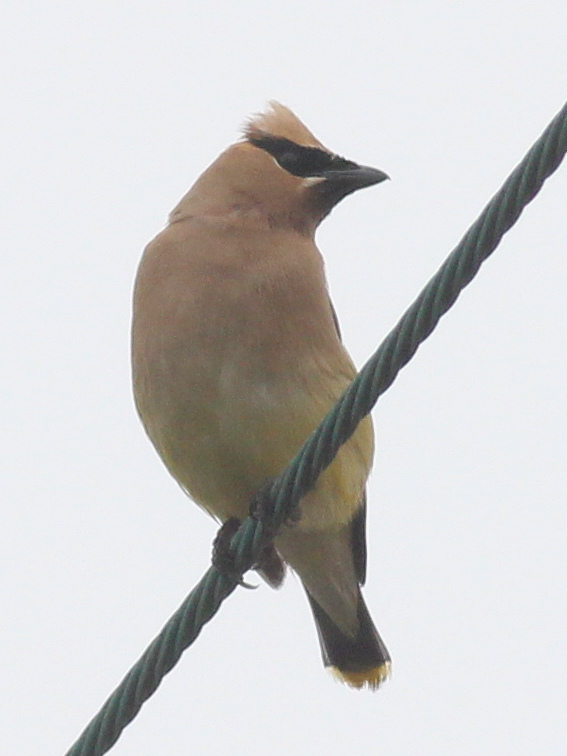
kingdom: Animalia
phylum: Chordata
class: Aves
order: Passeriformes
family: Bombycillidae
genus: Bombycilla
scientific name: Bombycilla cedrorum
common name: Cedar waxwing
